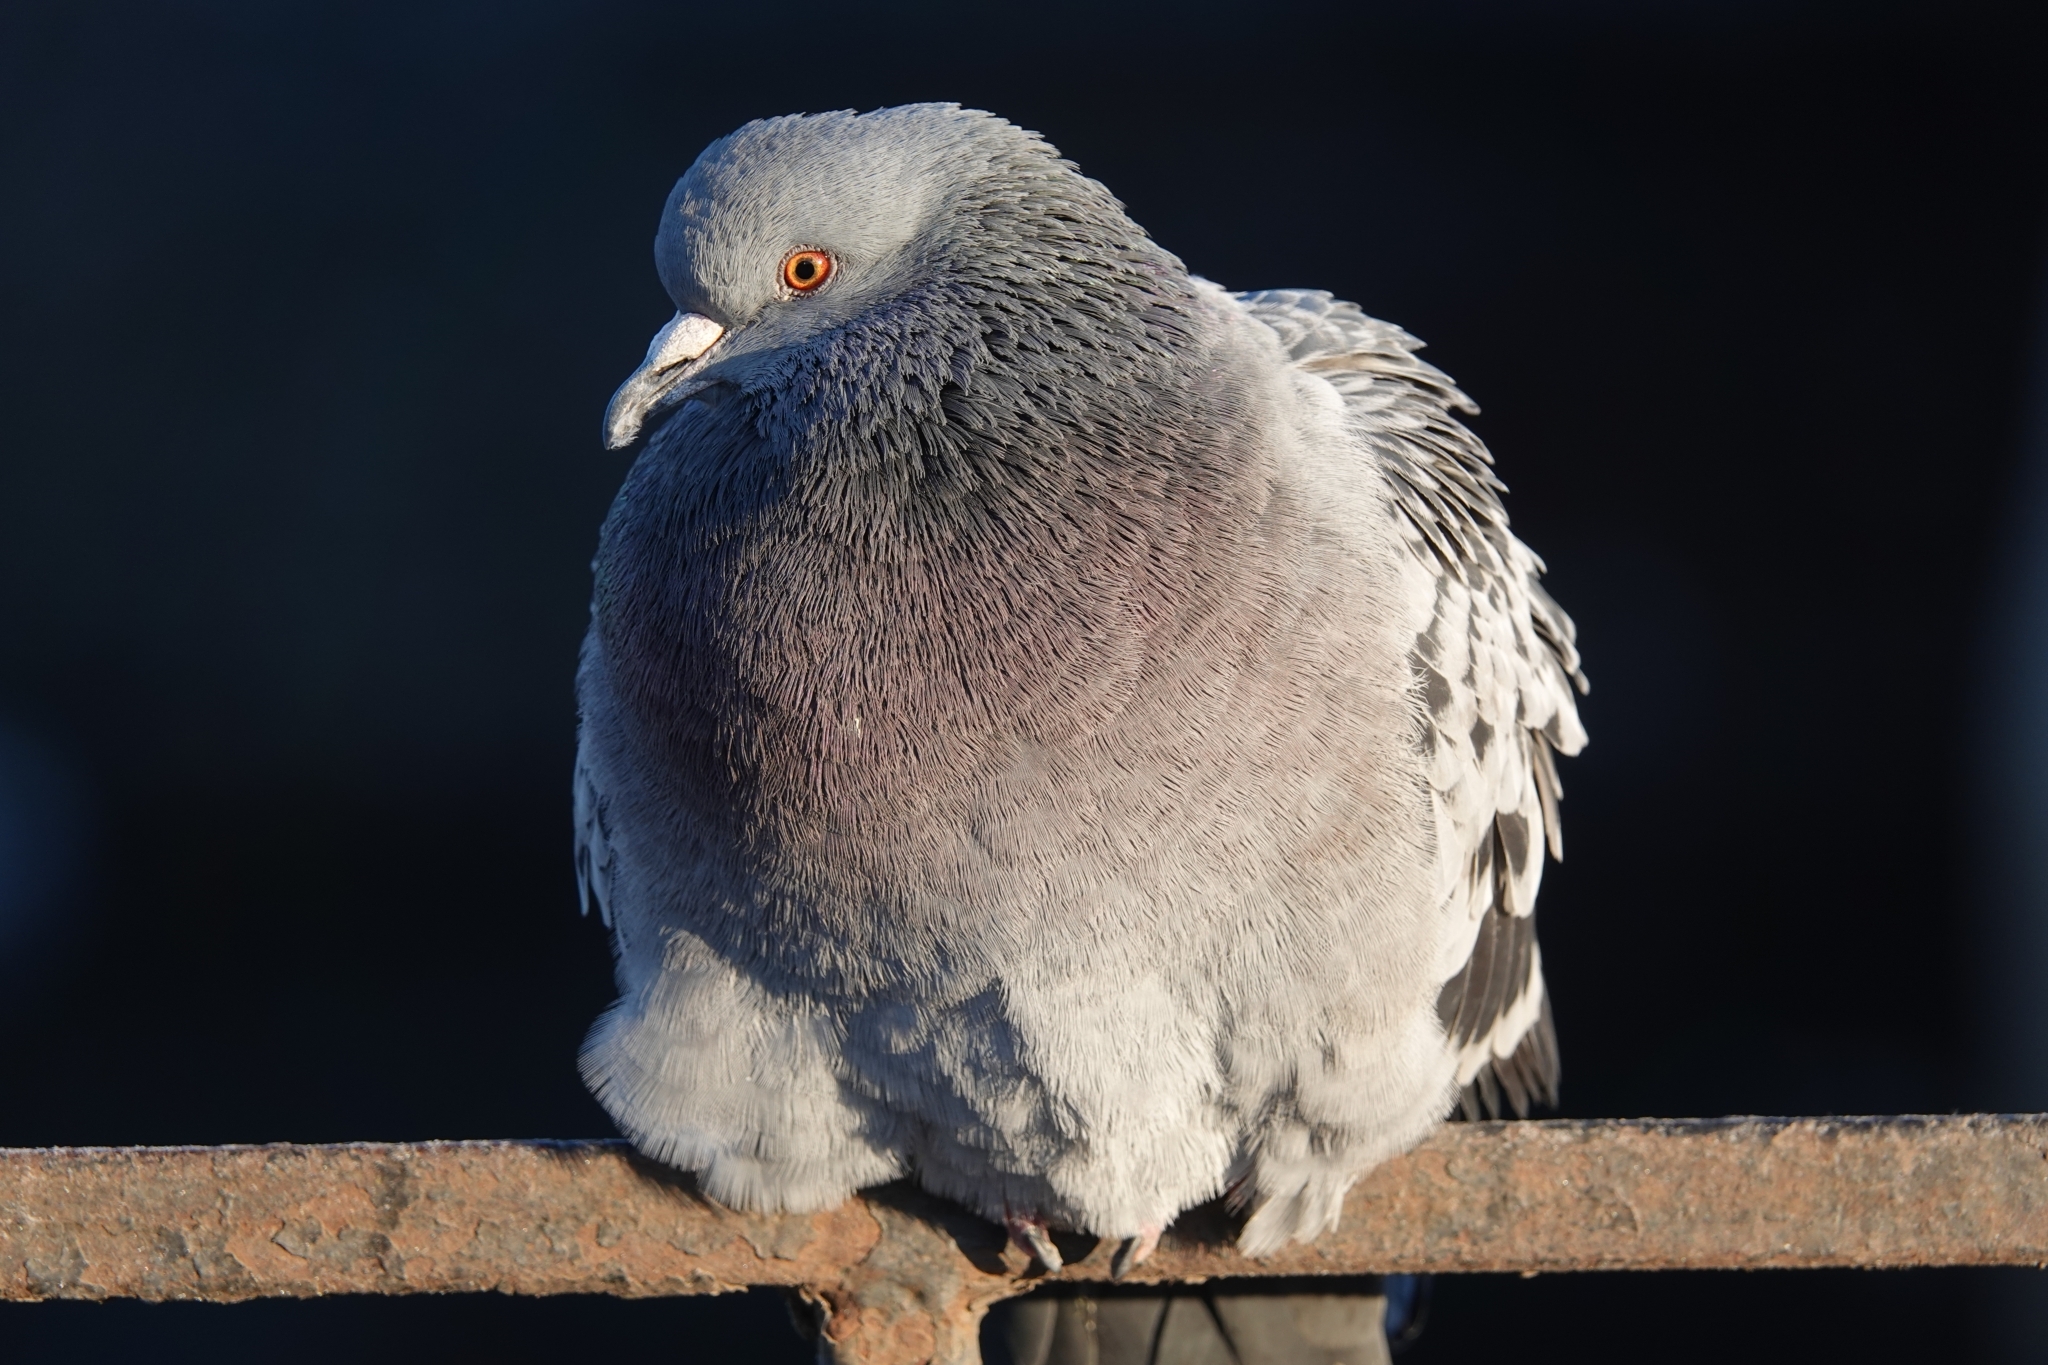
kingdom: Animalia
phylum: Chordata
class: Aves
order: Columbiformes
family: Columbidae
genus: Columba
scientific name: Columba livia
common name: Rock pigeon
